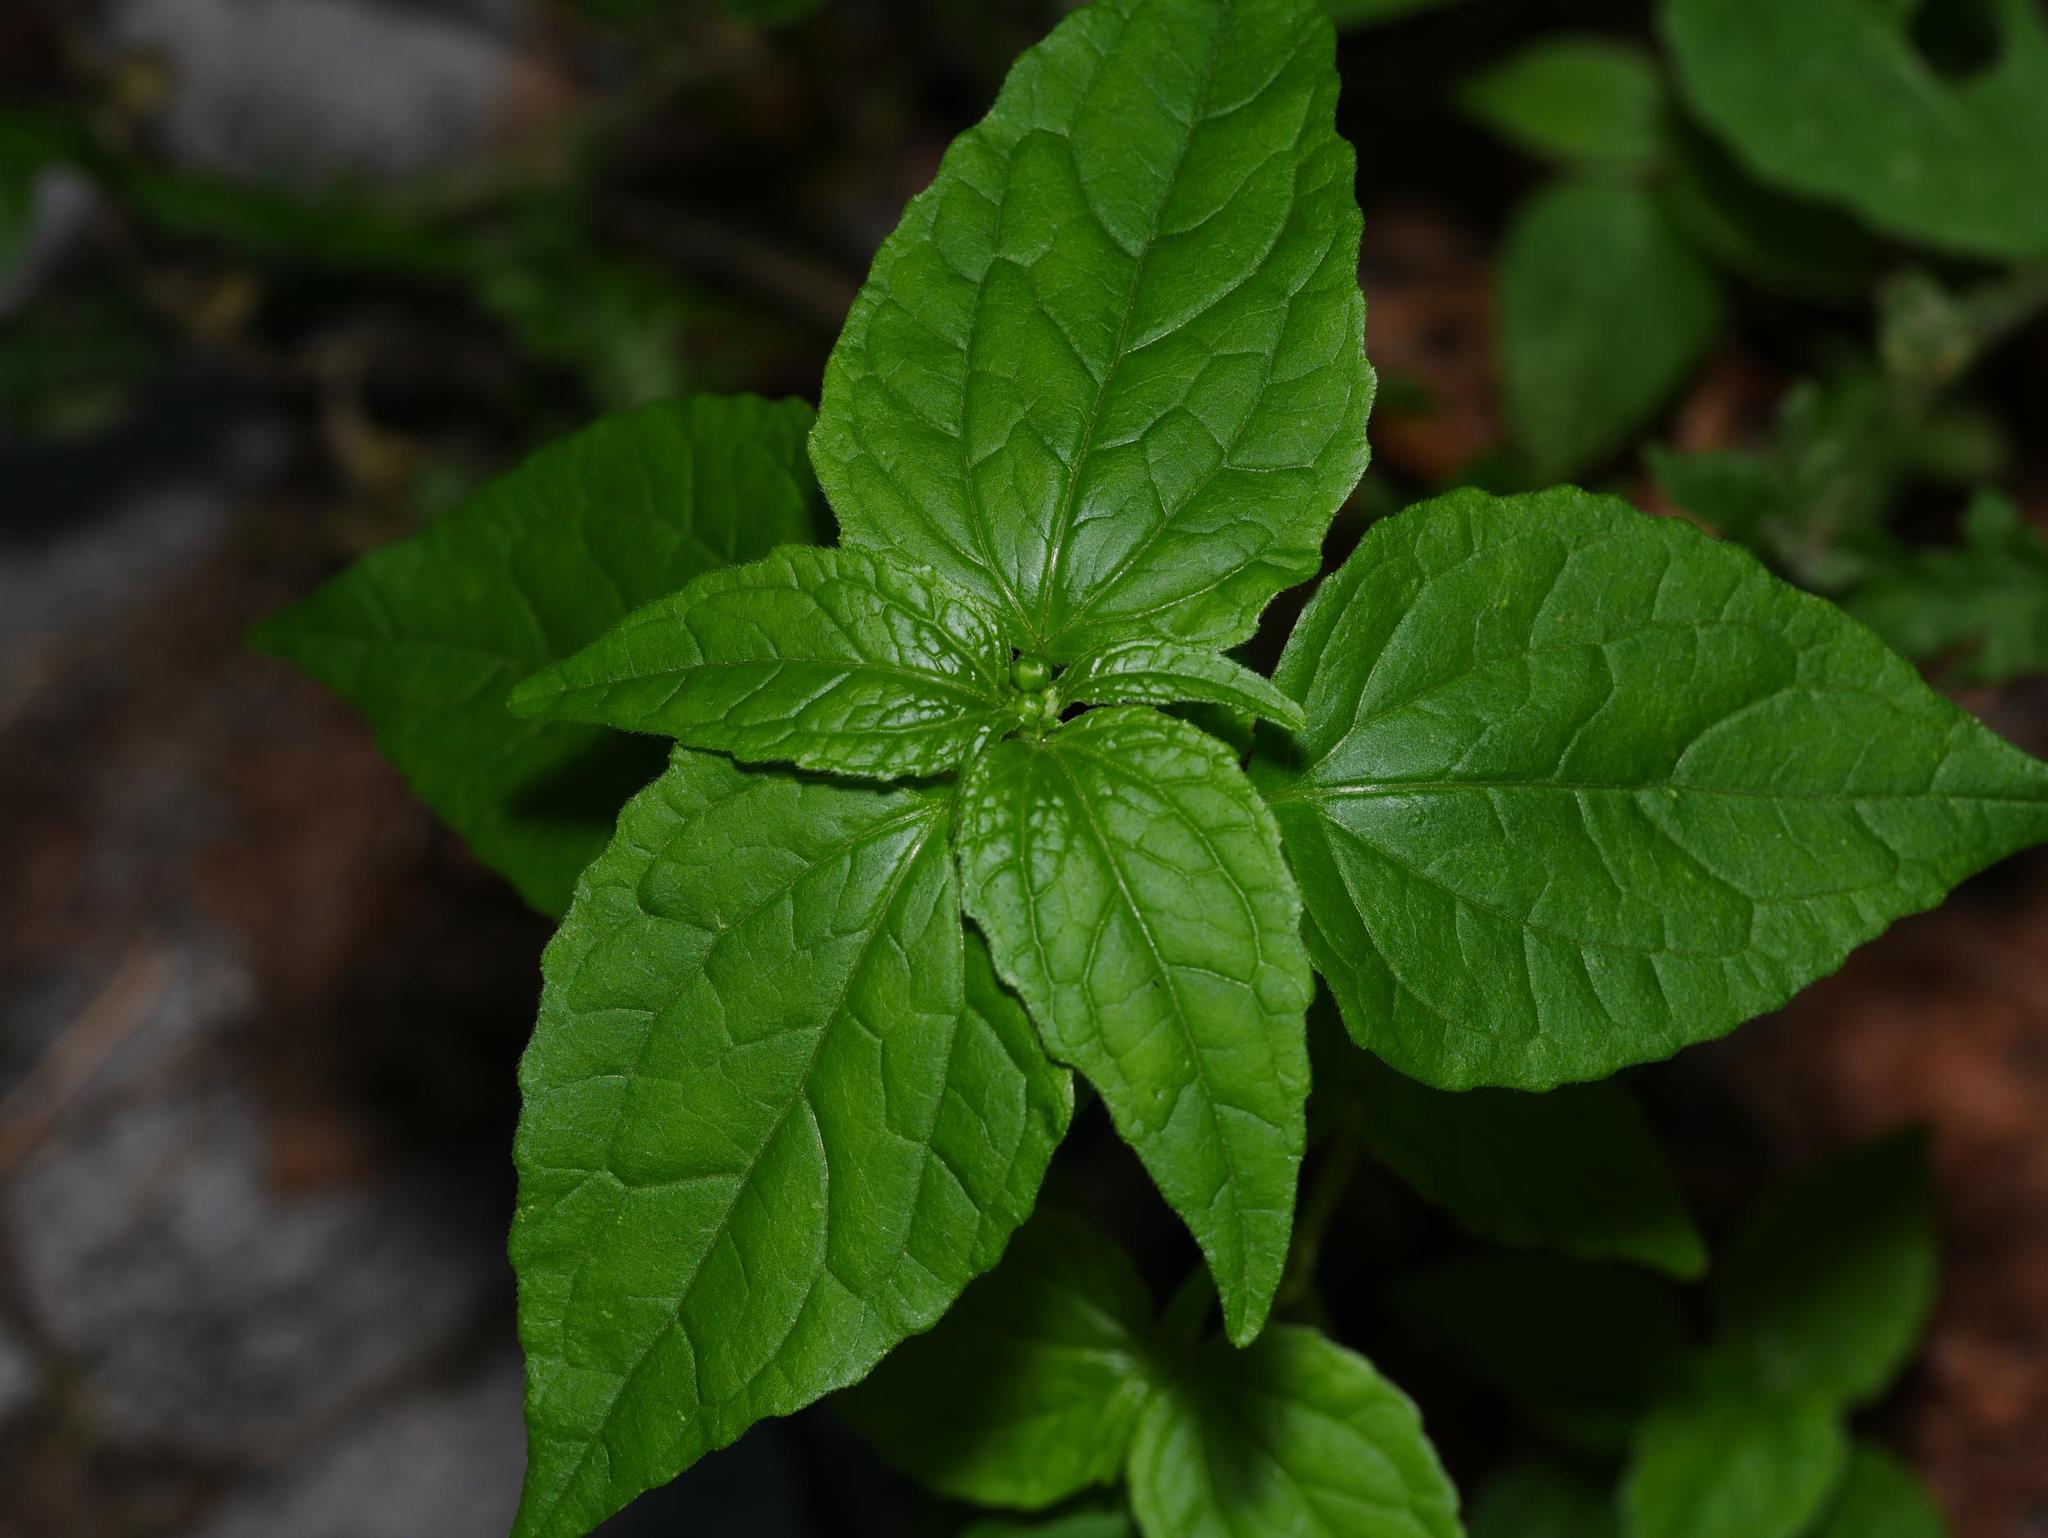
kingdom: Plantae
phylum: Tracheophyta
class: Magnoliopsida
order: Asterales
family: Asteraceae
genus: Galinsoga
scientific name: Galinsoga parviflora
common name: Gallant soldier
